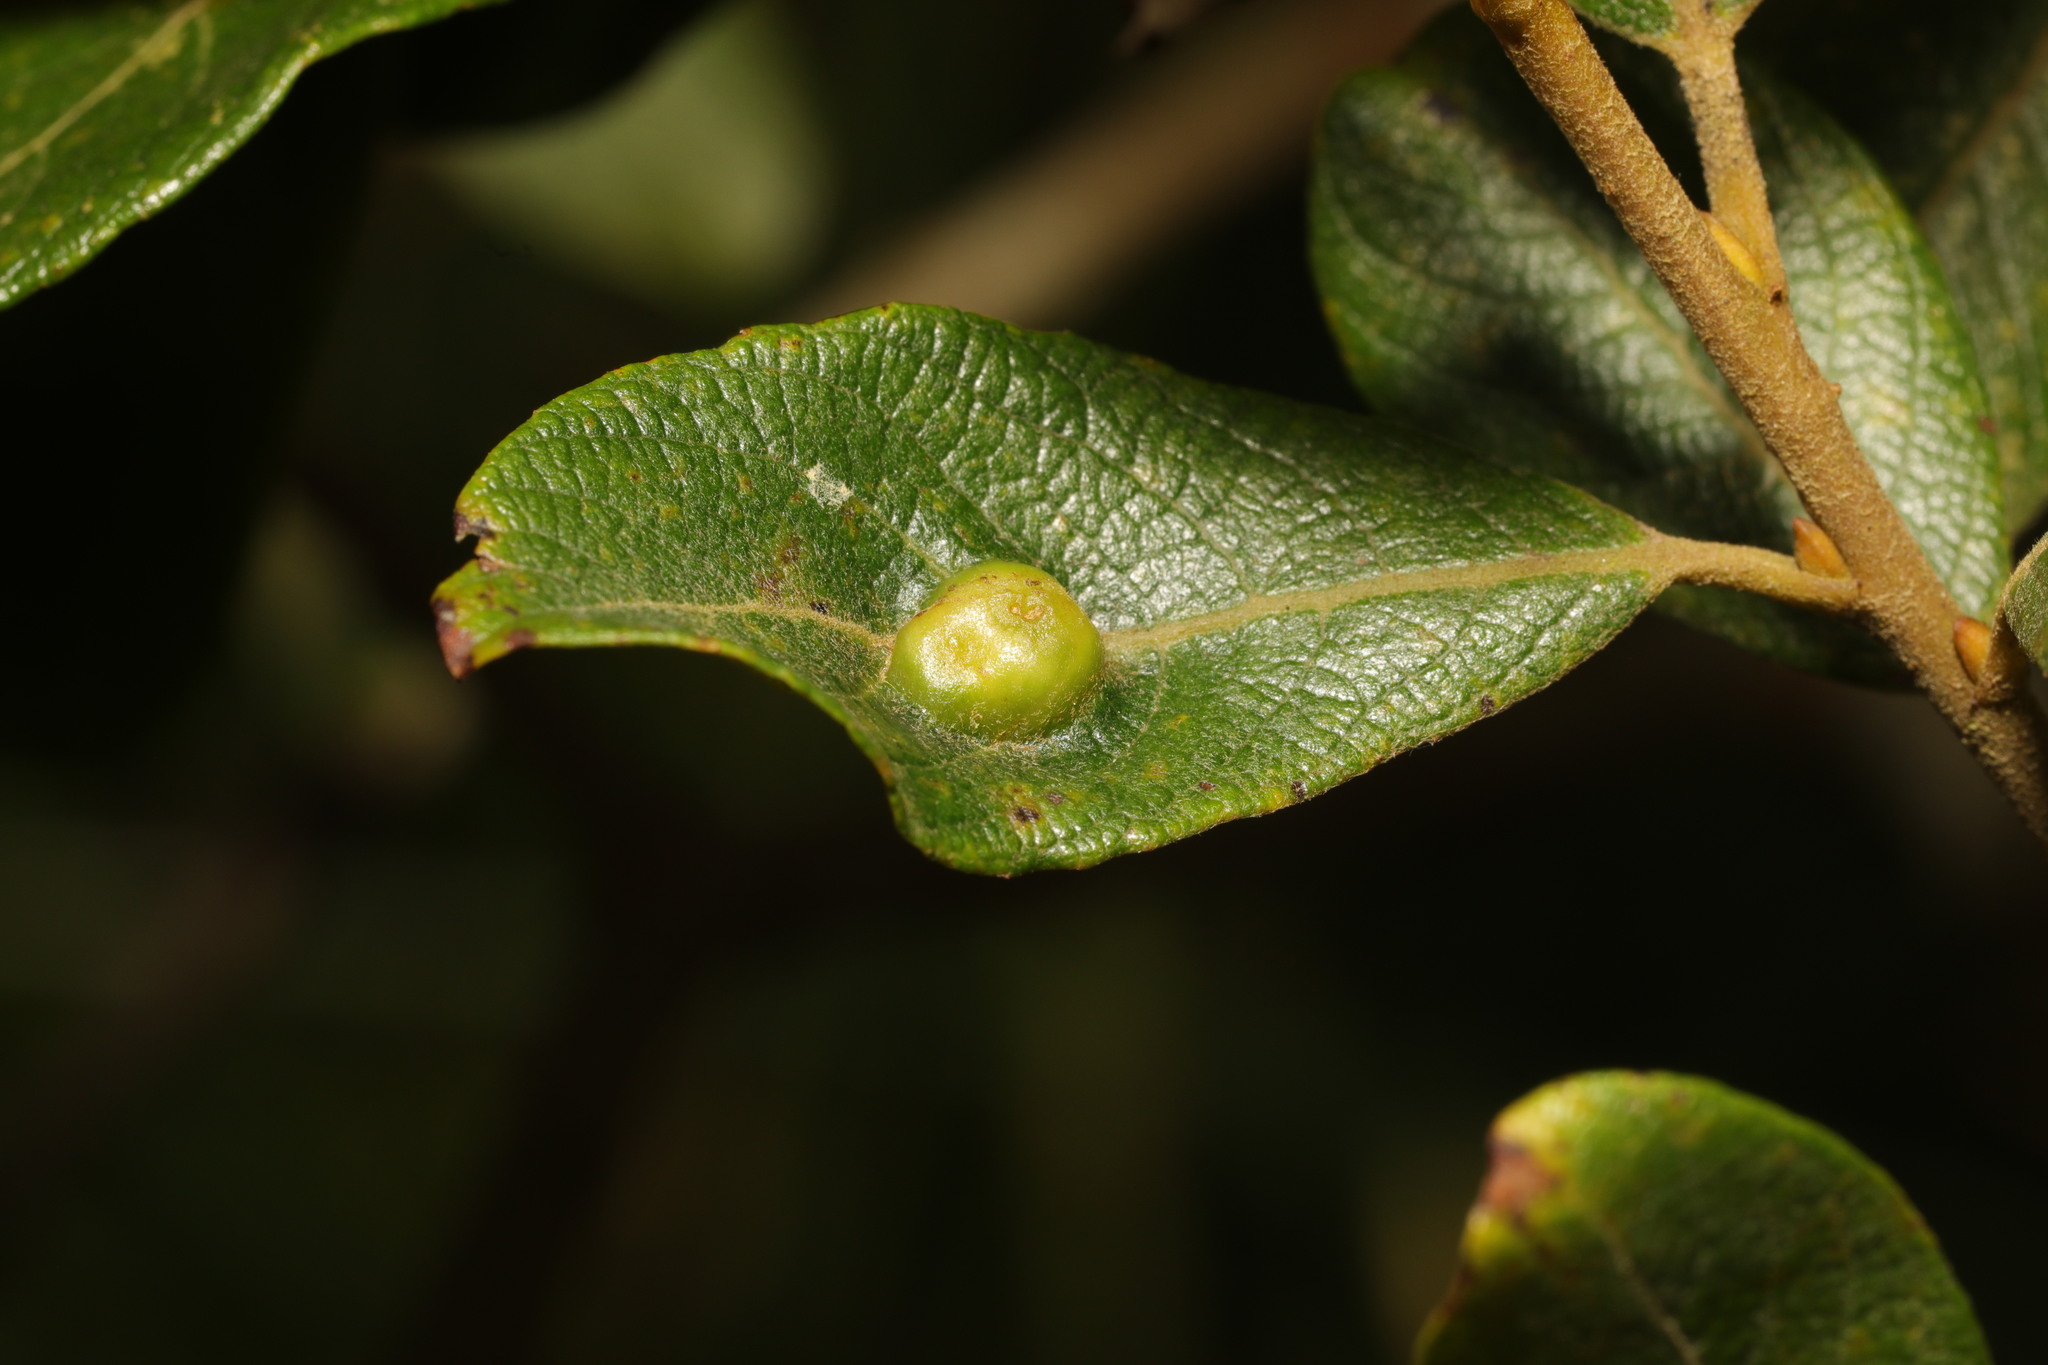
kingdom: Animalia
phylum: Arthropoda
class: Insecta
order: Diptera
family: Cecidomyiidae
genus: Iteomyia
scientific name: Iteomyia major
